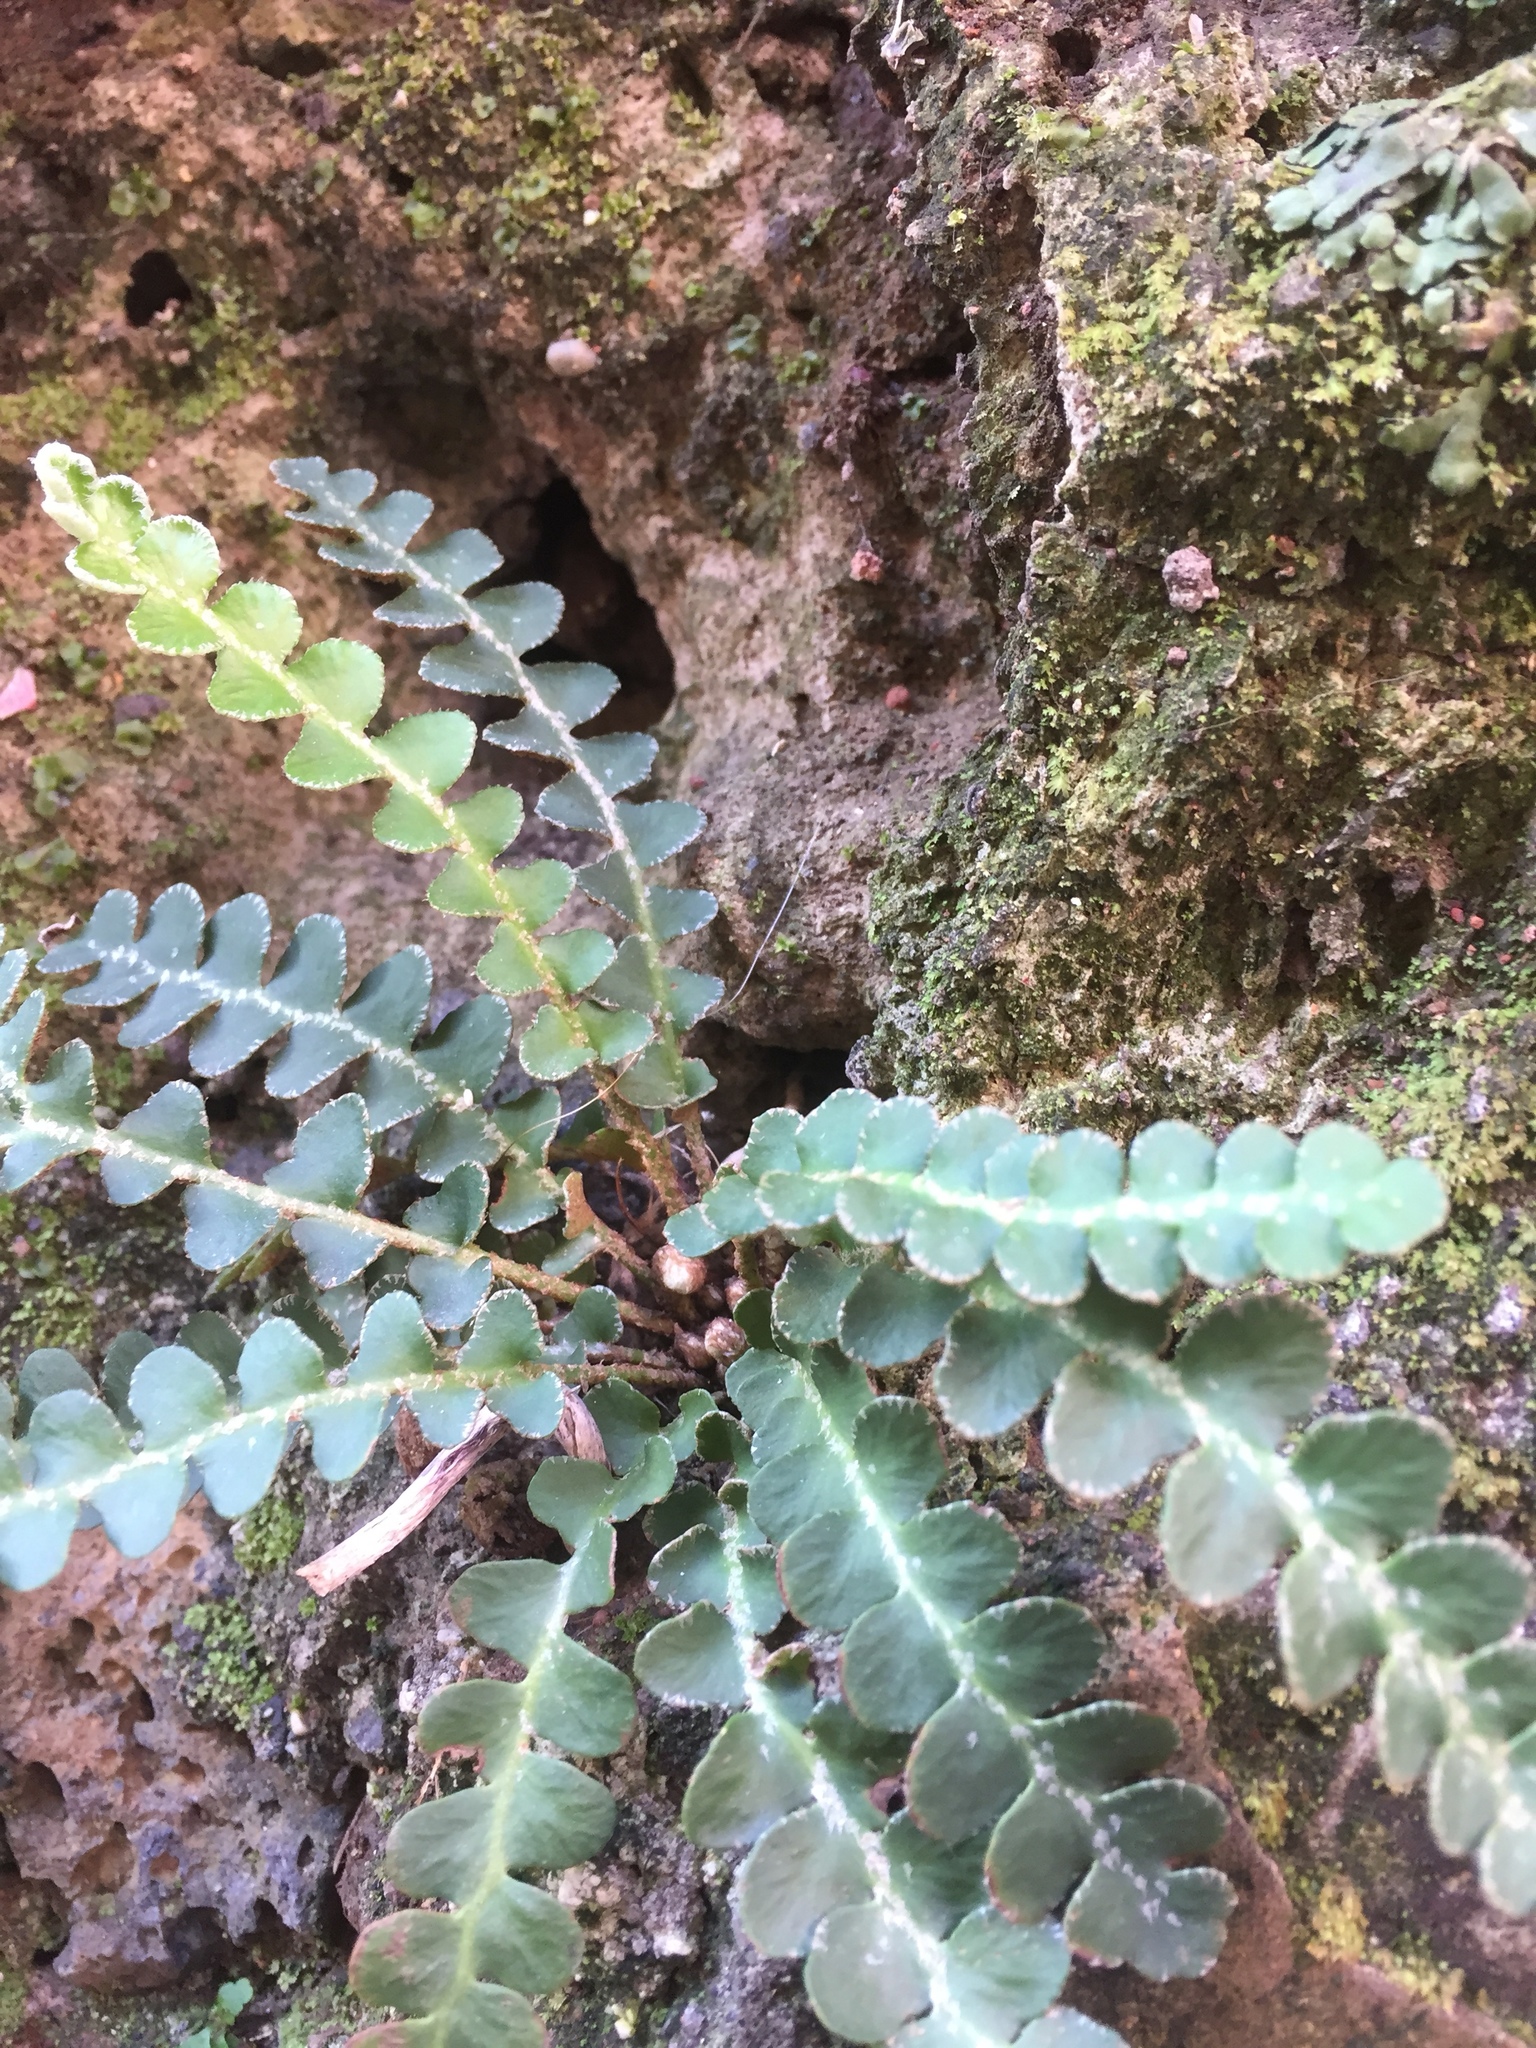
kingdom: Plantae
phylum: Tracheophyta
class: Polypodiopsida
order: Polypodiales
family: Aspleniaceae
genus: Asplenium
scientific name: Asplenium ceterach
